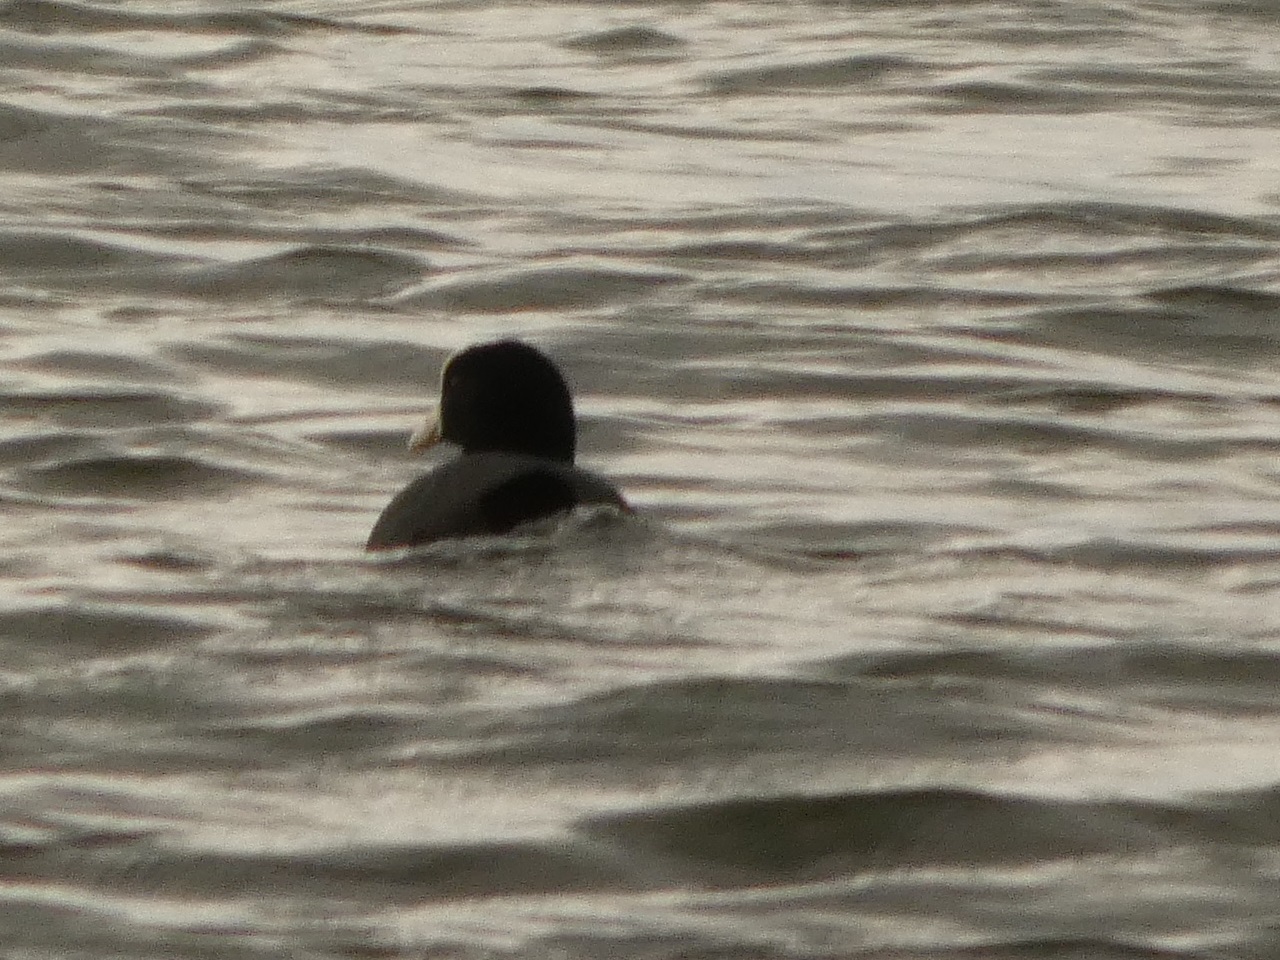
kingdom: Animalia
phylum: Chordata
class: Aves
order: Gruiformes
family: Rallidae
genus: Fulica
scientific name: Fulica atra
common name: Eurasian coot
